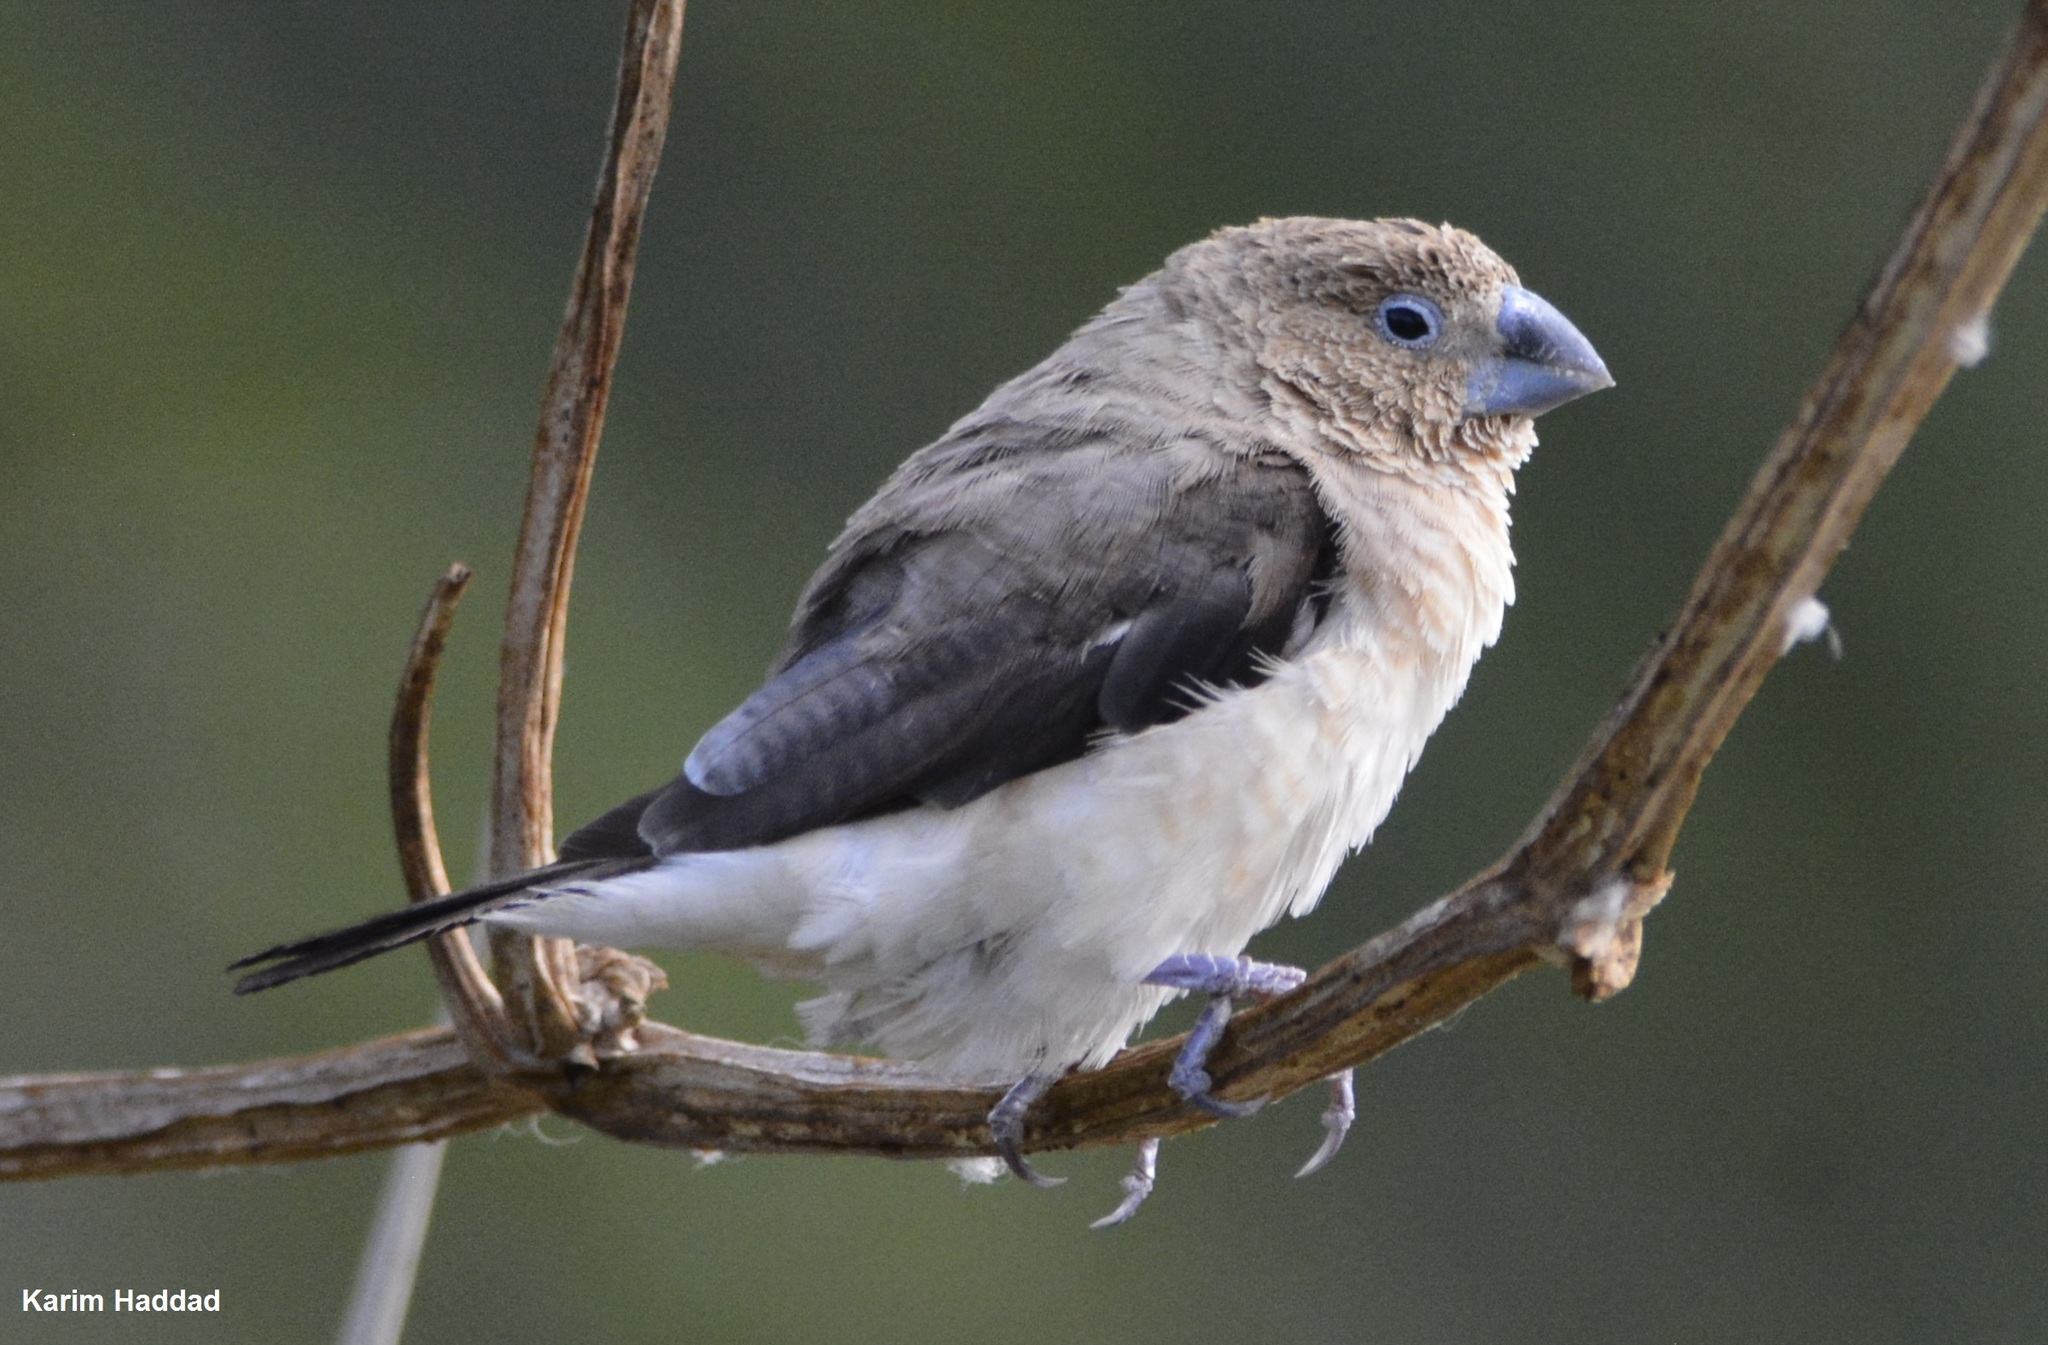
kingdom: Animalia
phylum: Chordata
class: Aves
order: Passeriformes
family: Estrildidae
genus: Euodice
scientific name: Euodice cantans
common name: African silverbill
